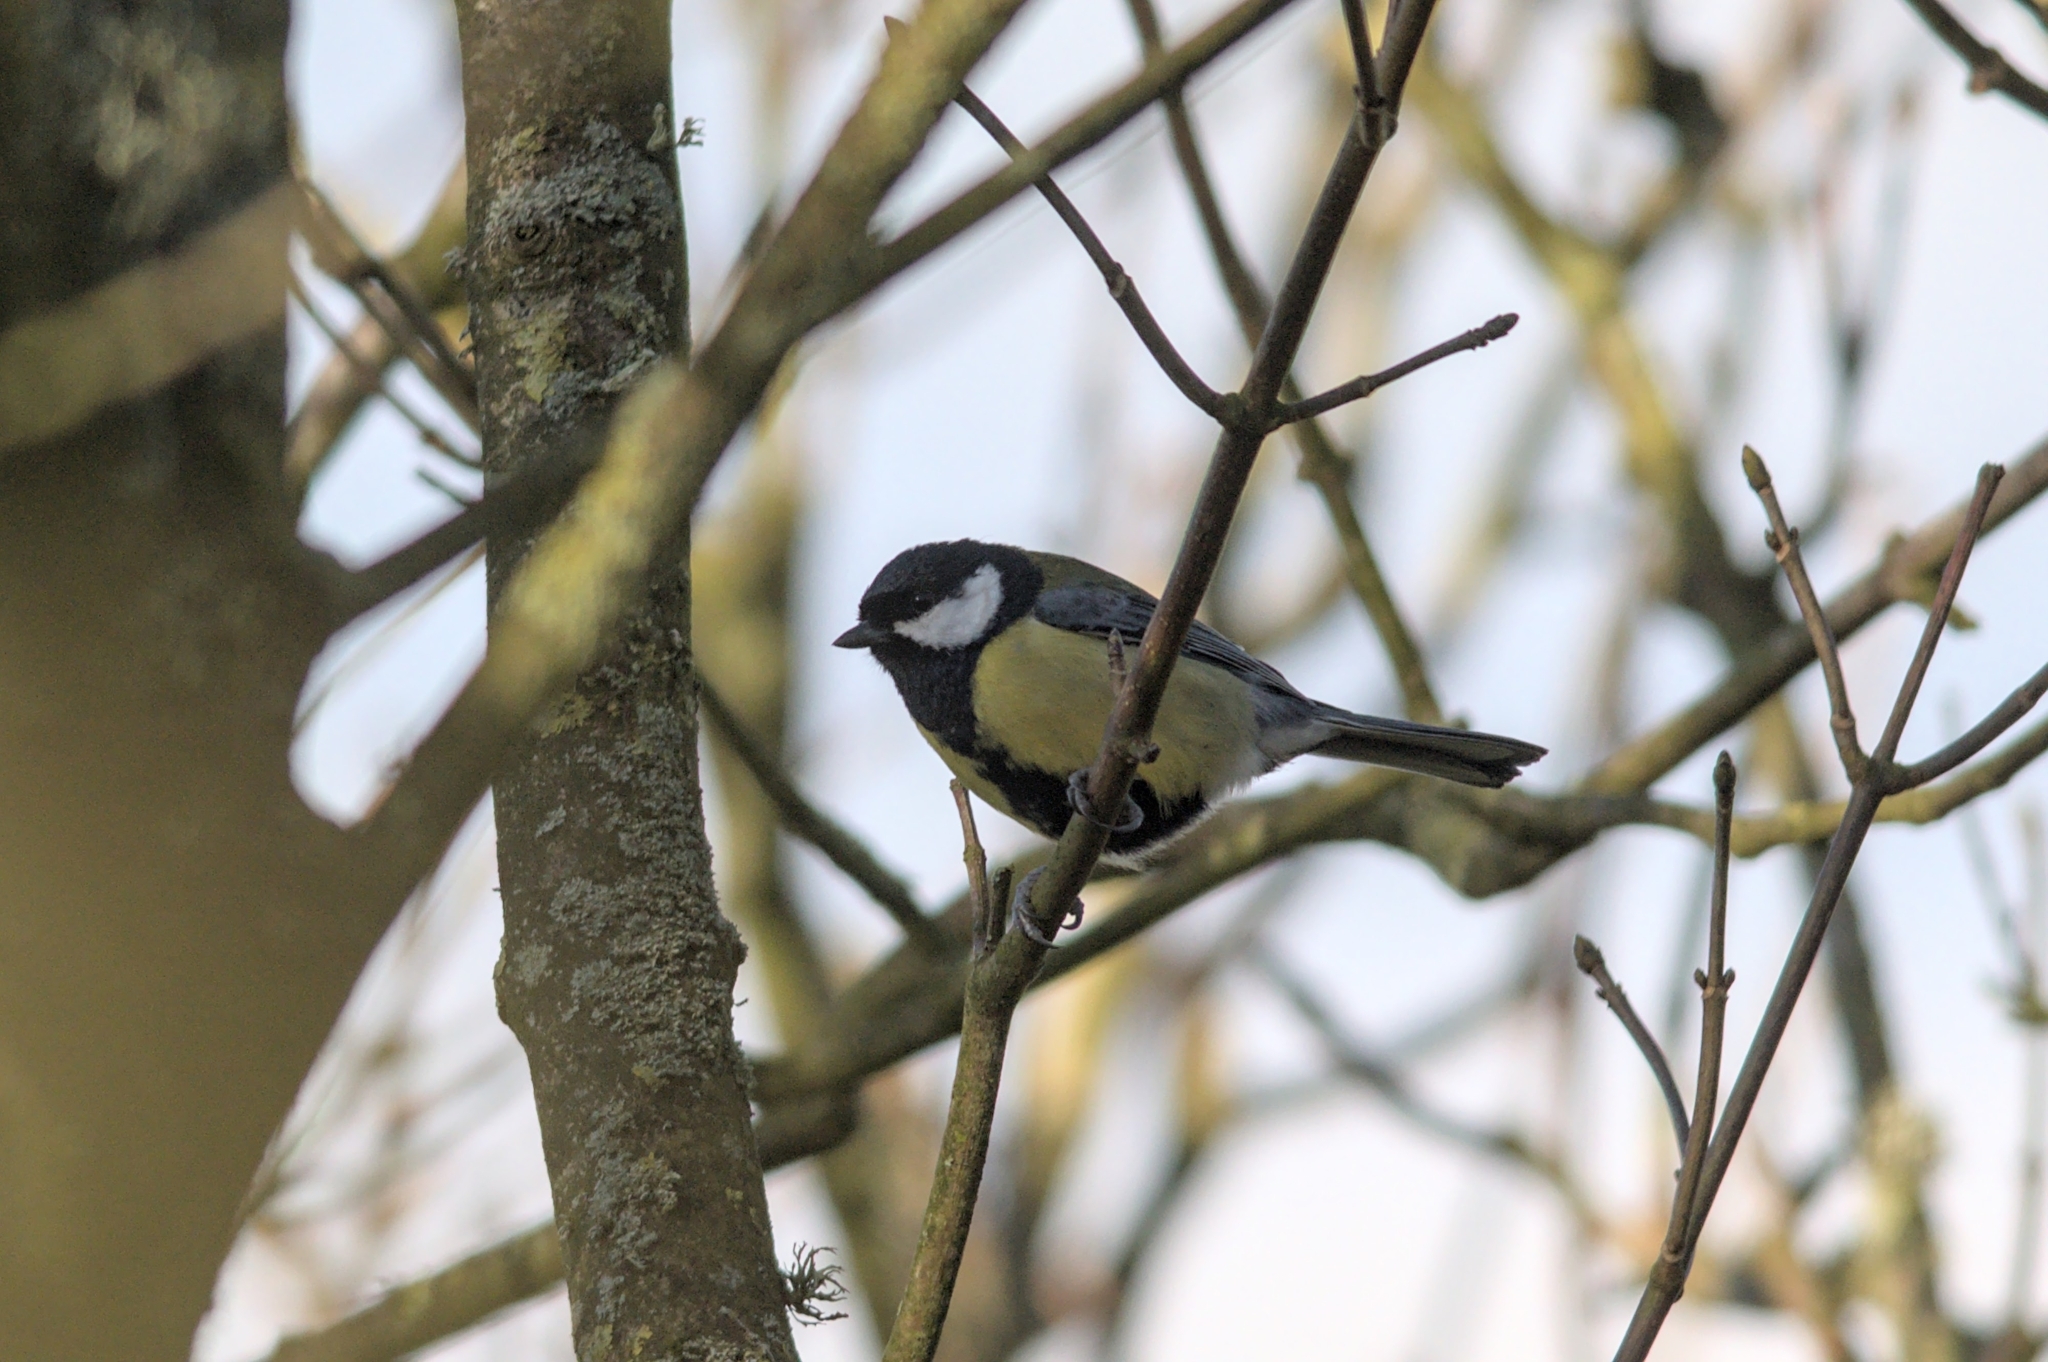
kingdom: Animalia
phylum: Chordata
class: Aves
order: Passeriformes
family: Paridae
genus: Parus
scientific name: Parus major
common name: Great tit
